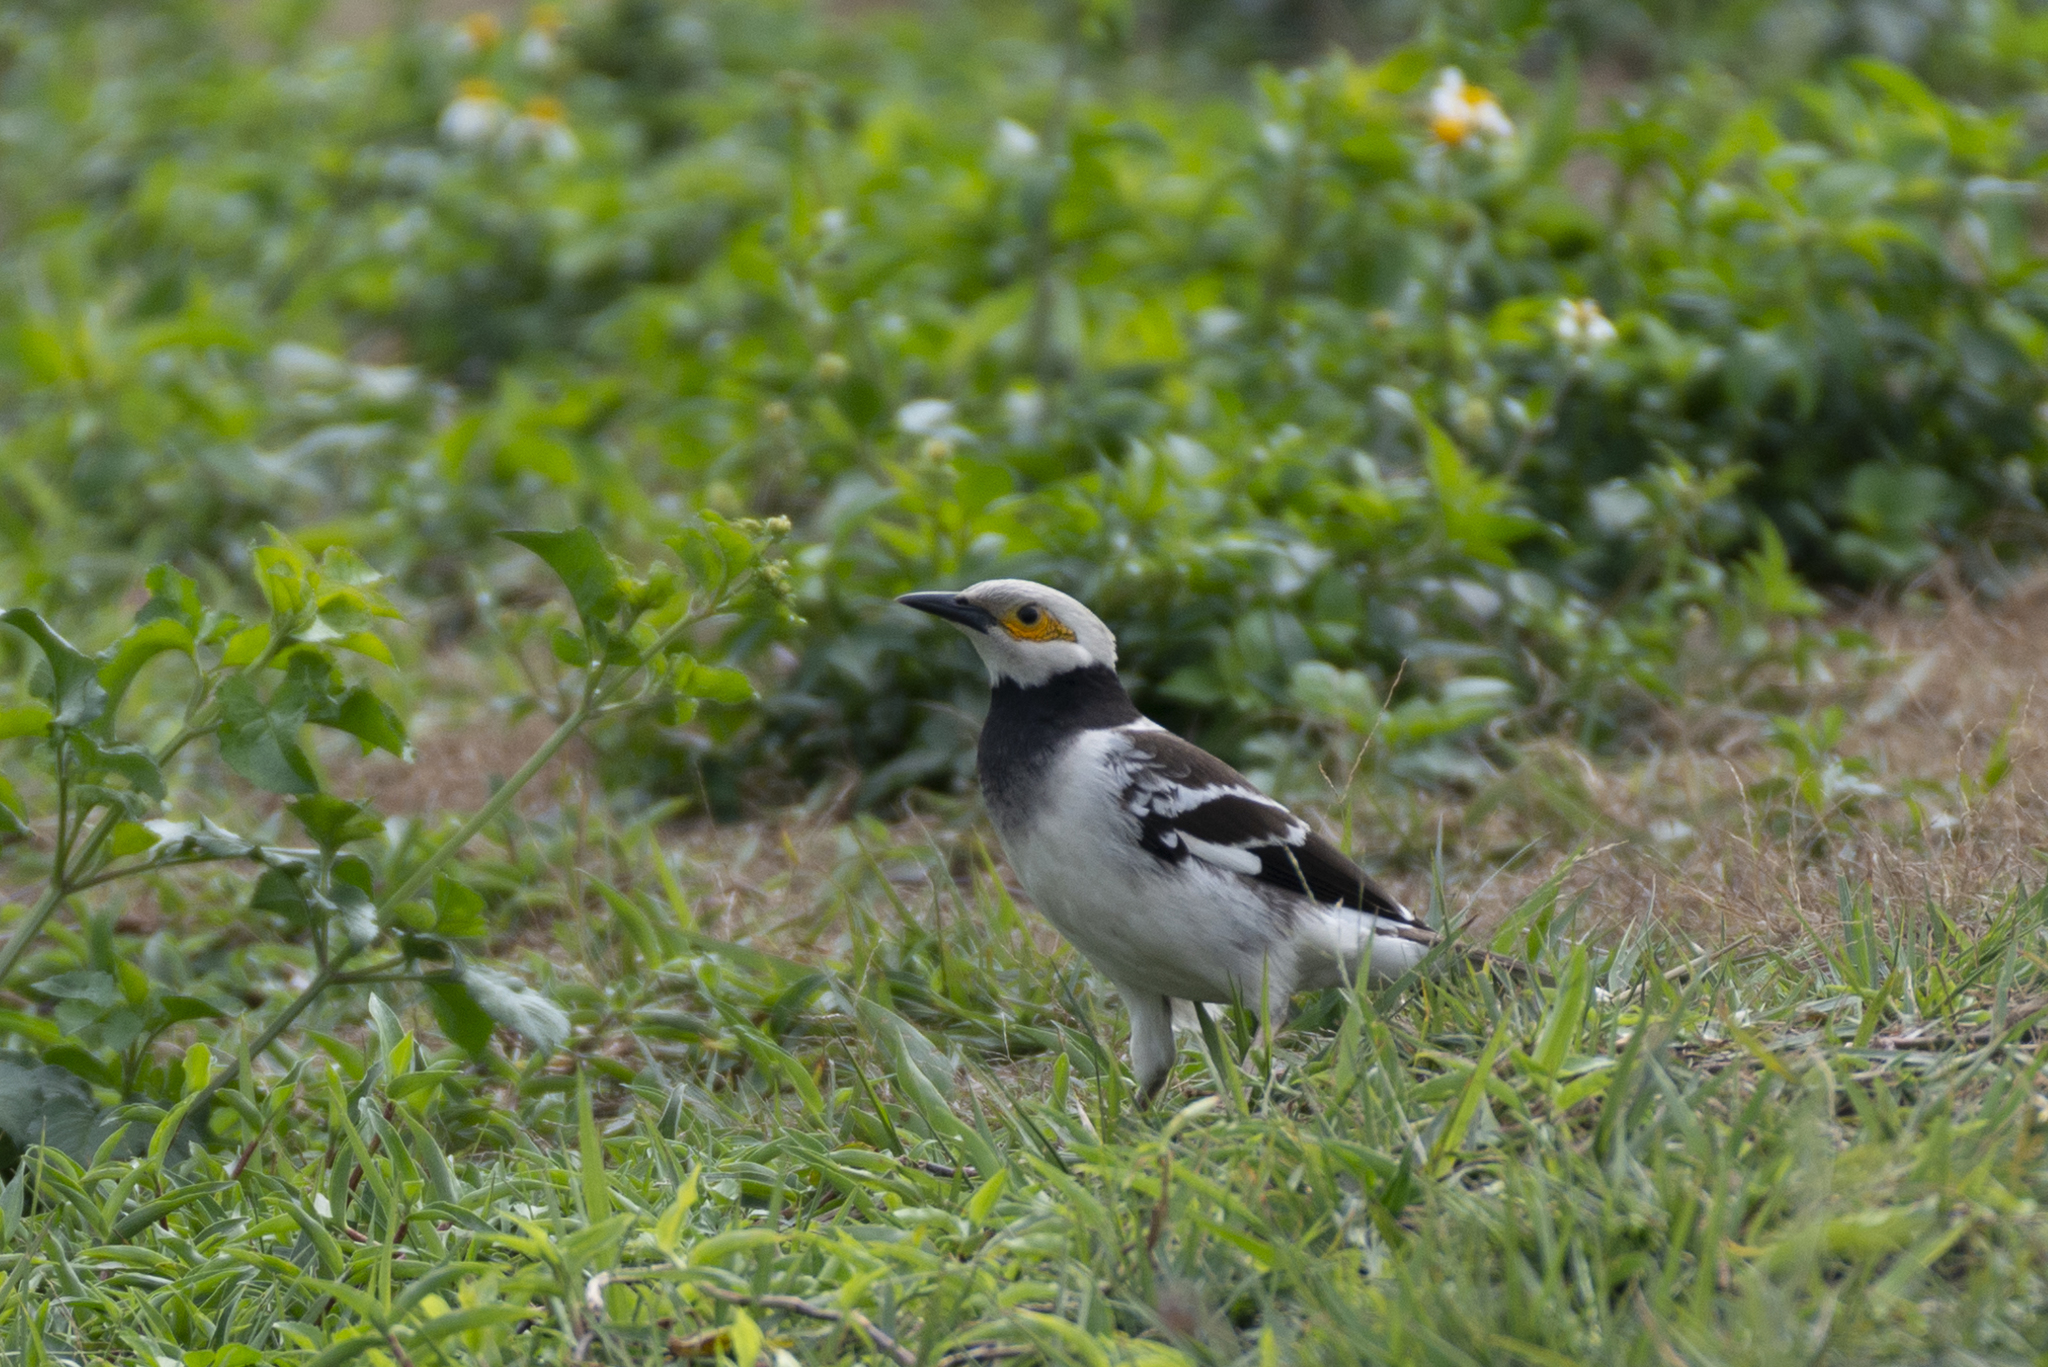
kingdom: Animalia
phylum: Chordata
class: Aves
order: Passeriformes
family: Sturnidae
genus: Gracupica
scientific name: Gracupica nigricollis
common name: Black-collared starling
